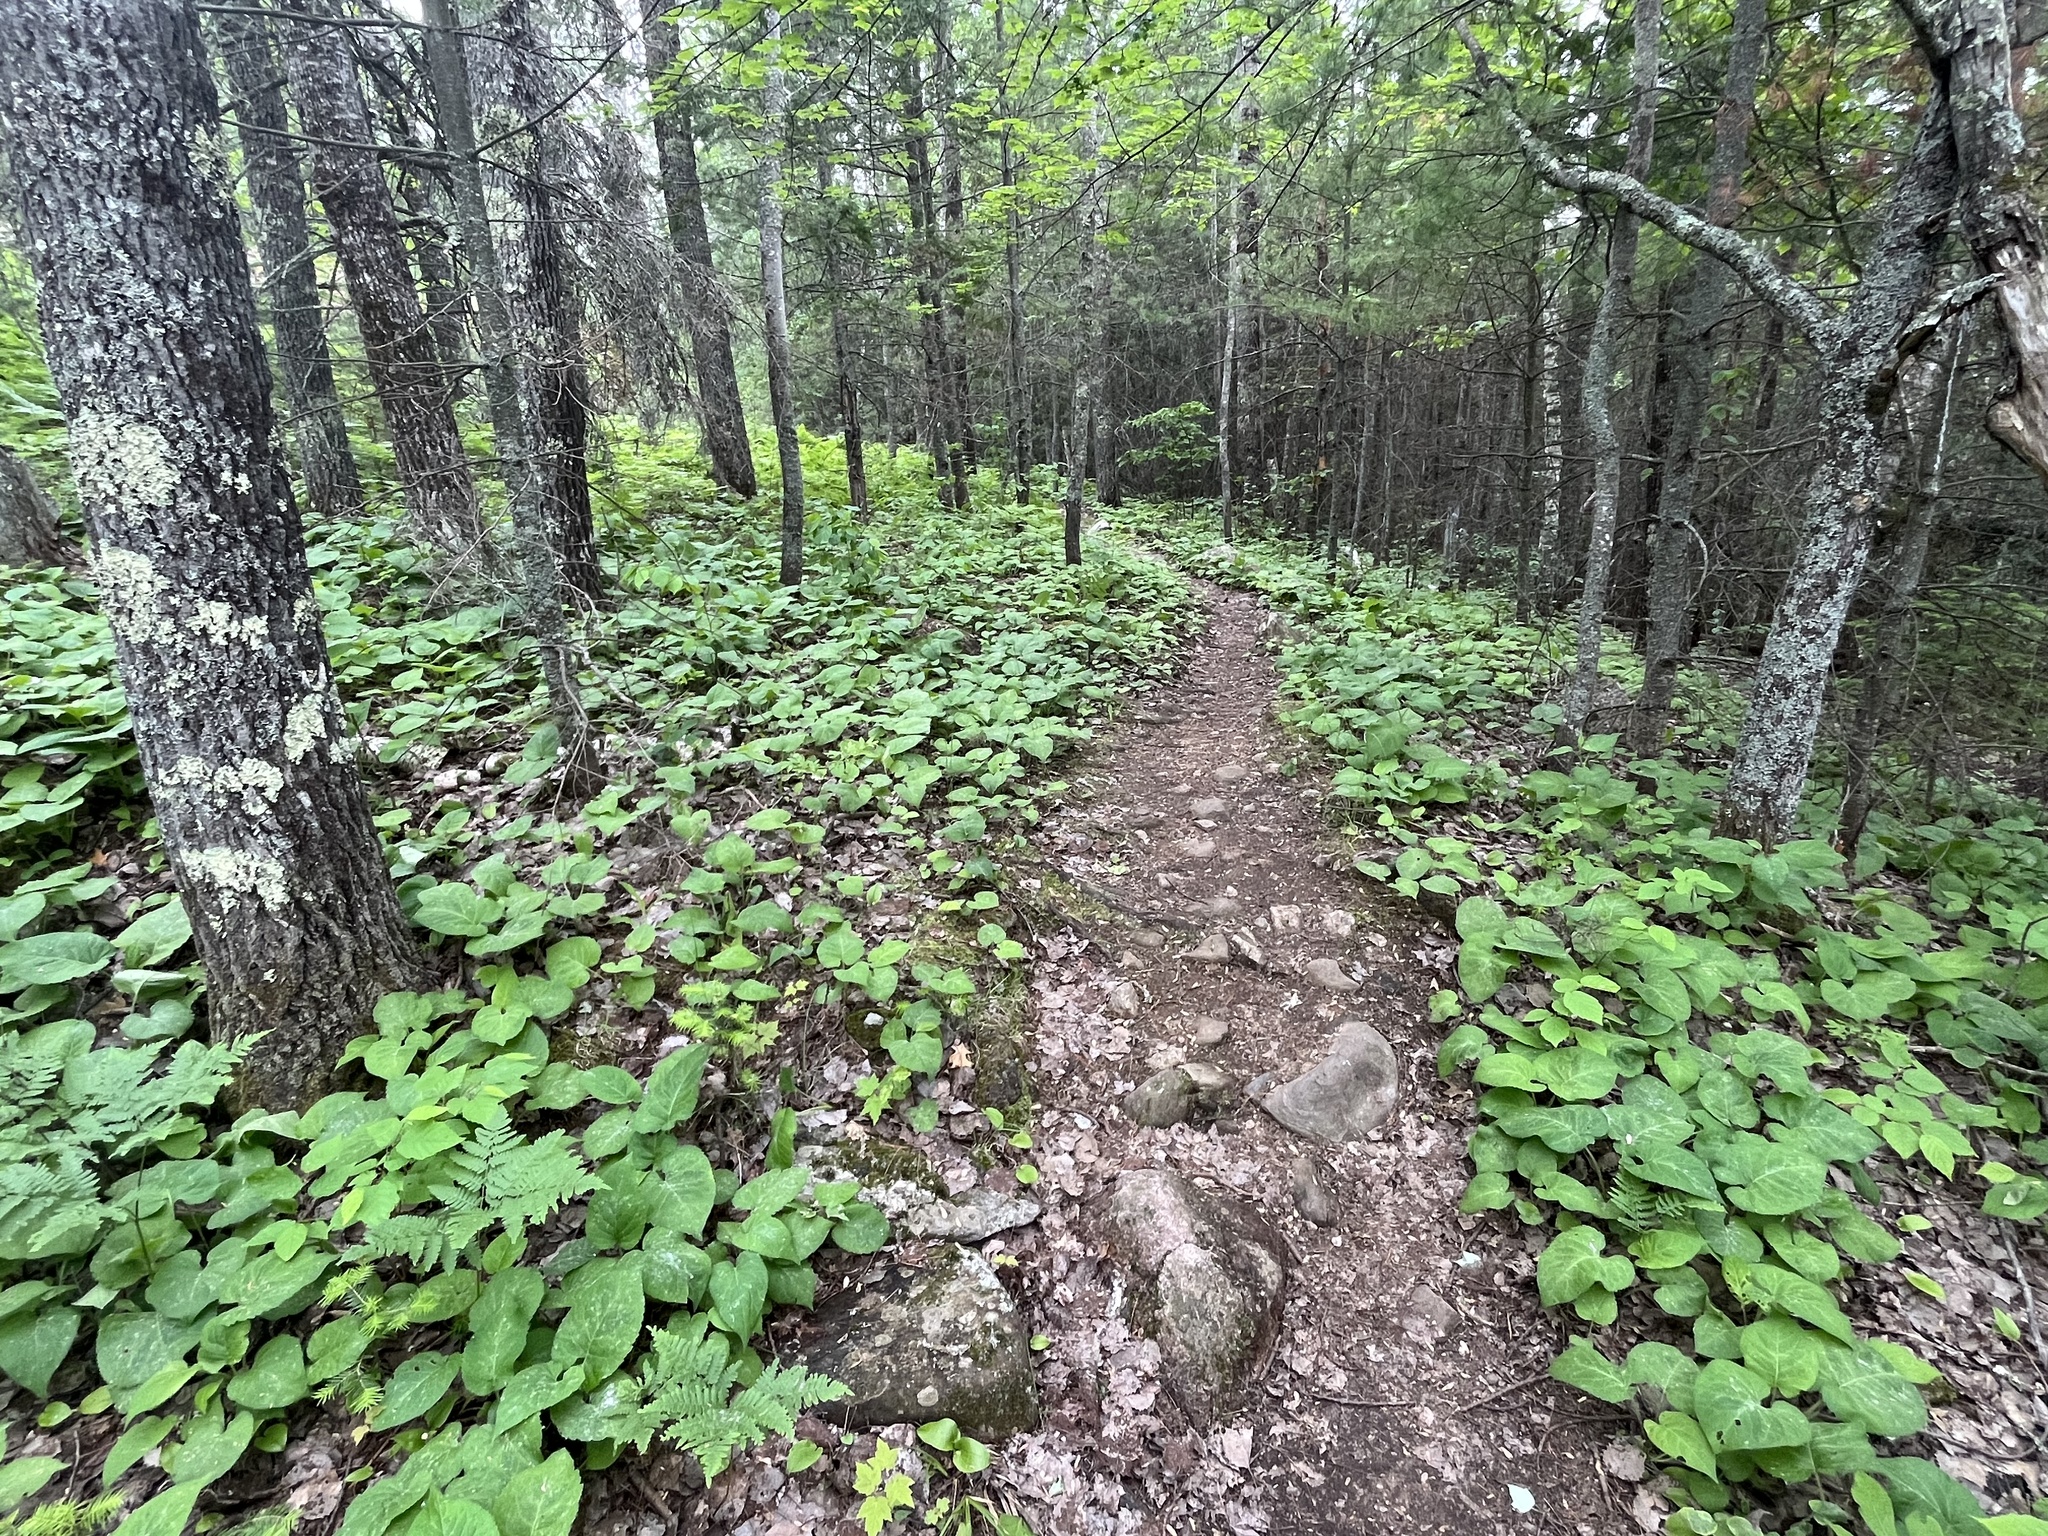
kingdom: Plantae
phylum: Tracheophyta
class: Magnoliopsida
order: Asterales
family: Asteraceae
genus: Eurybia
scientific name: Eurybia macrophylla
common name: Big-leaved aster
